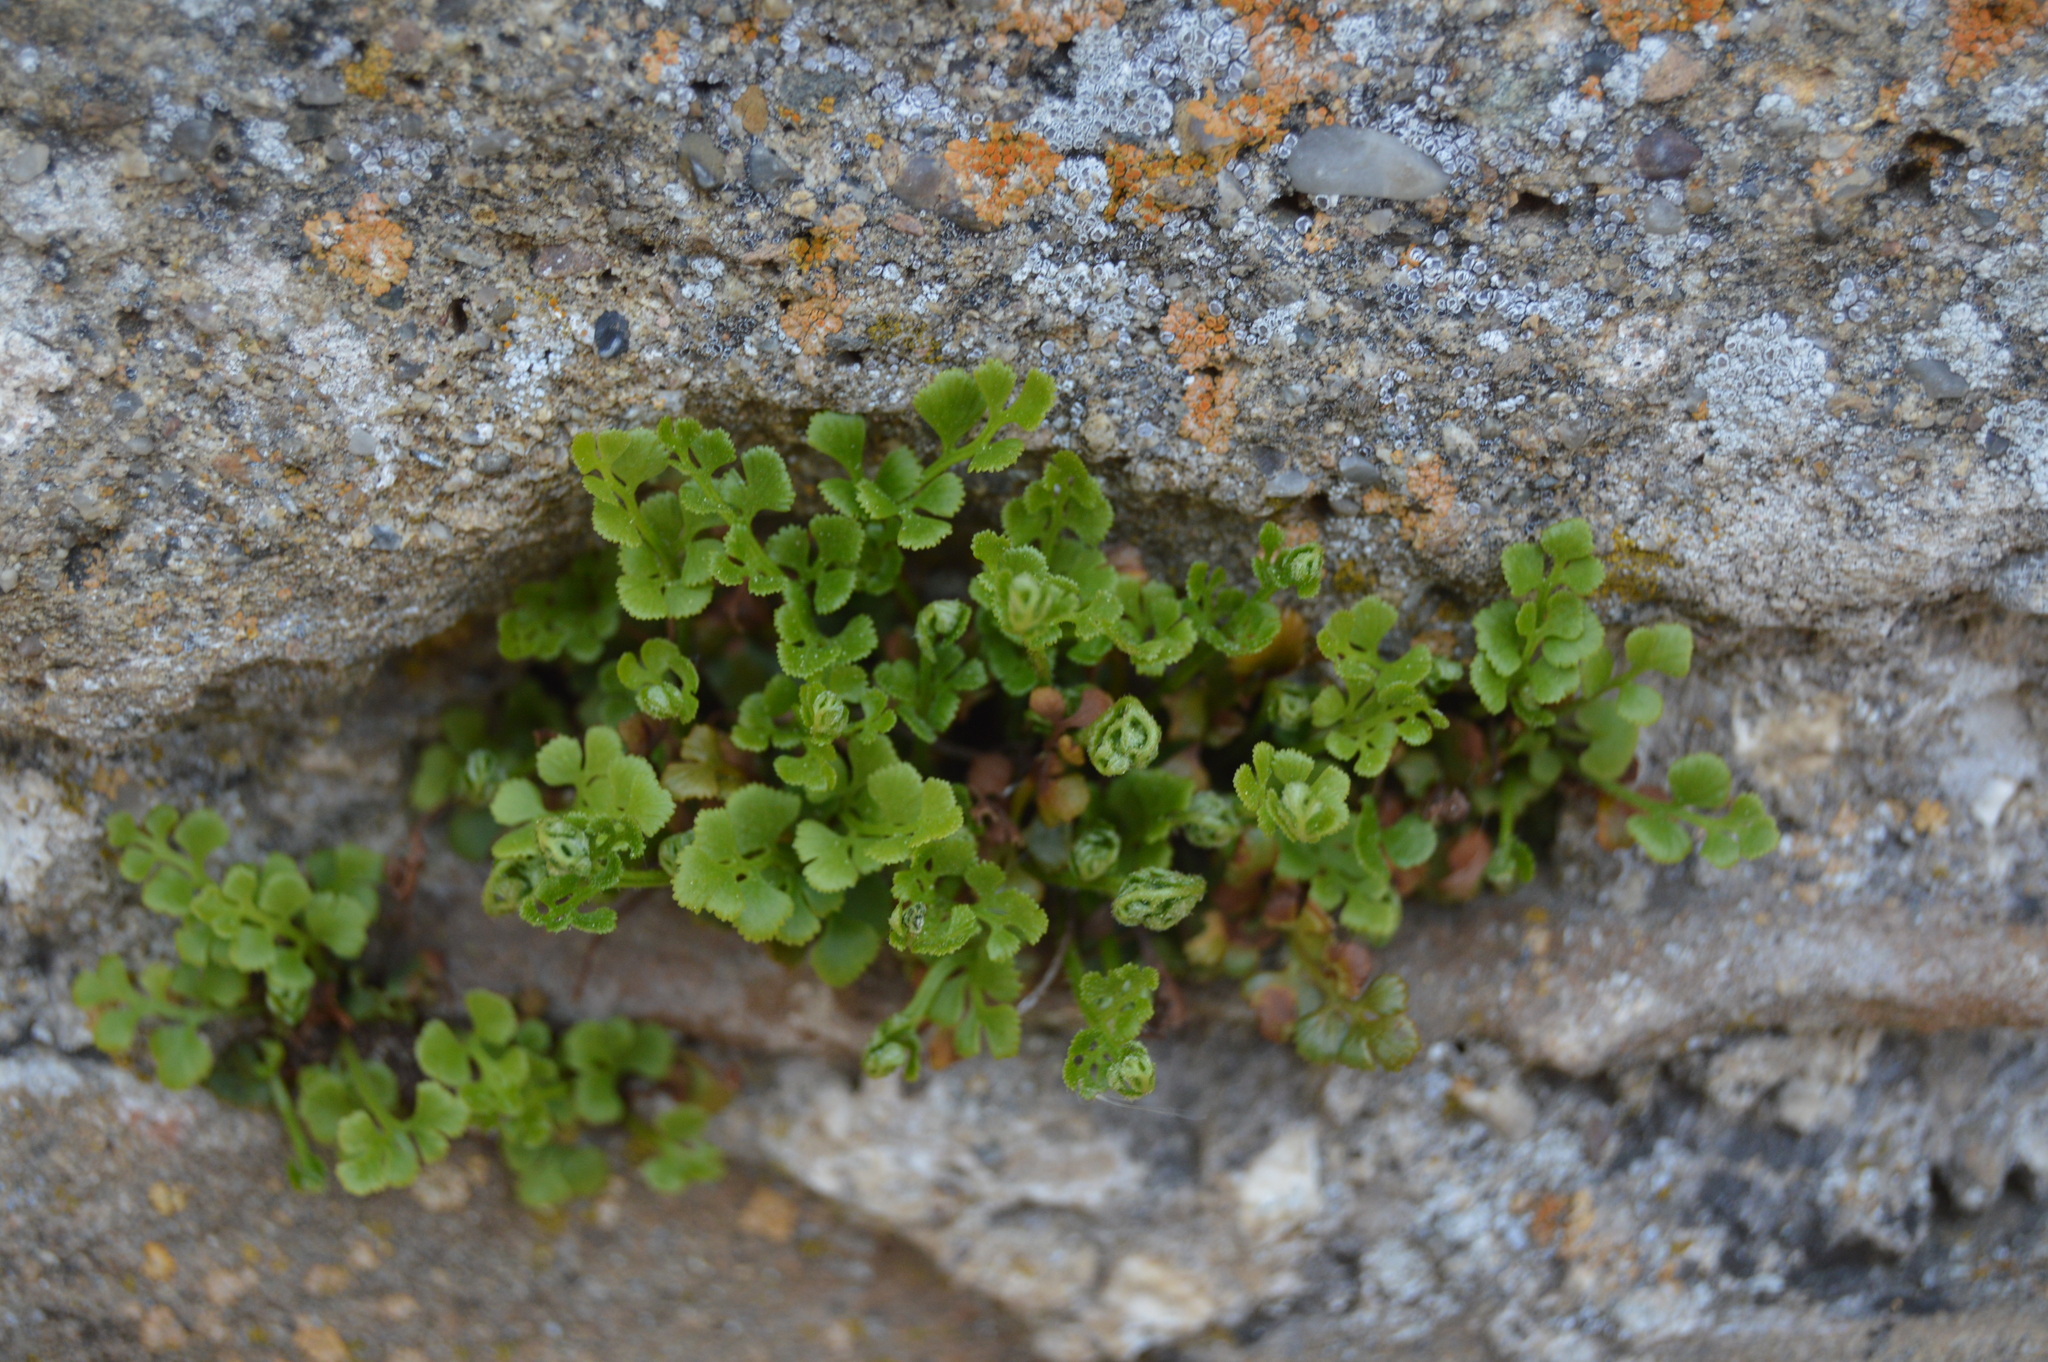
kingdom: Plantae
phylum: Tracheophyta
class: Polypodiopsida
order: Polypodiales
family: Aspleniaceae
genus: Asplenium
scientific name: Asplenium ruta-muraria
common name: Wall-rue
